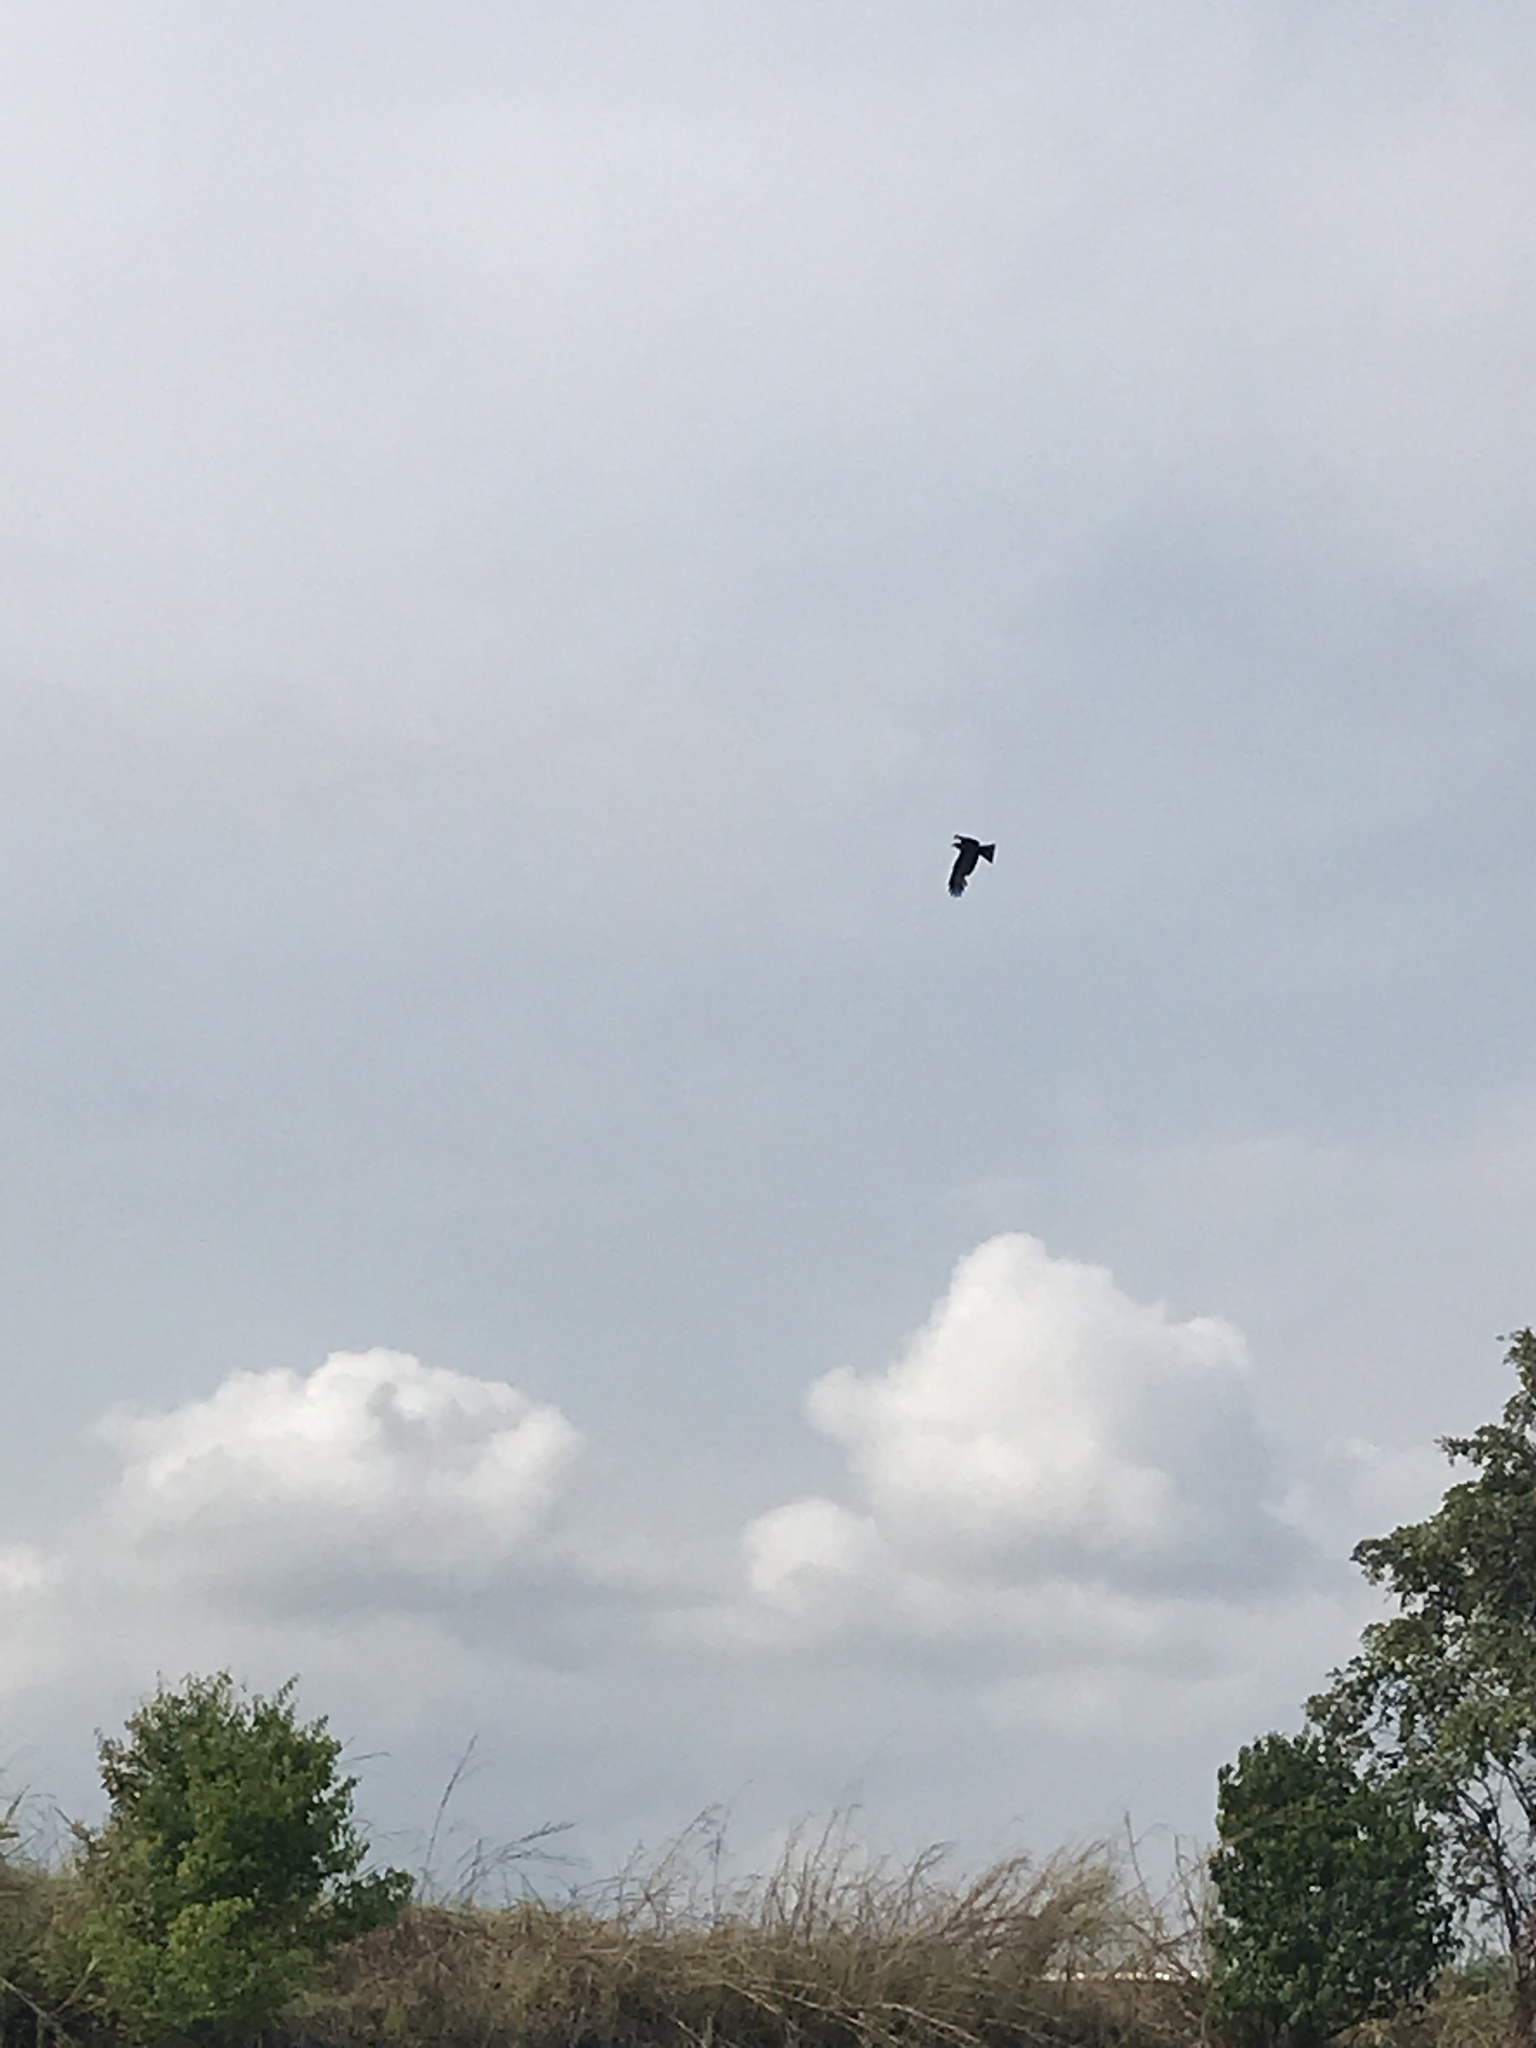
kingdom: Animalia
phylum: Chordata
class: Aves
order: Accipitriformes
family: Accipitridae
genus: Milvus
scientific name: Milvus migrans
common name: Black kite
